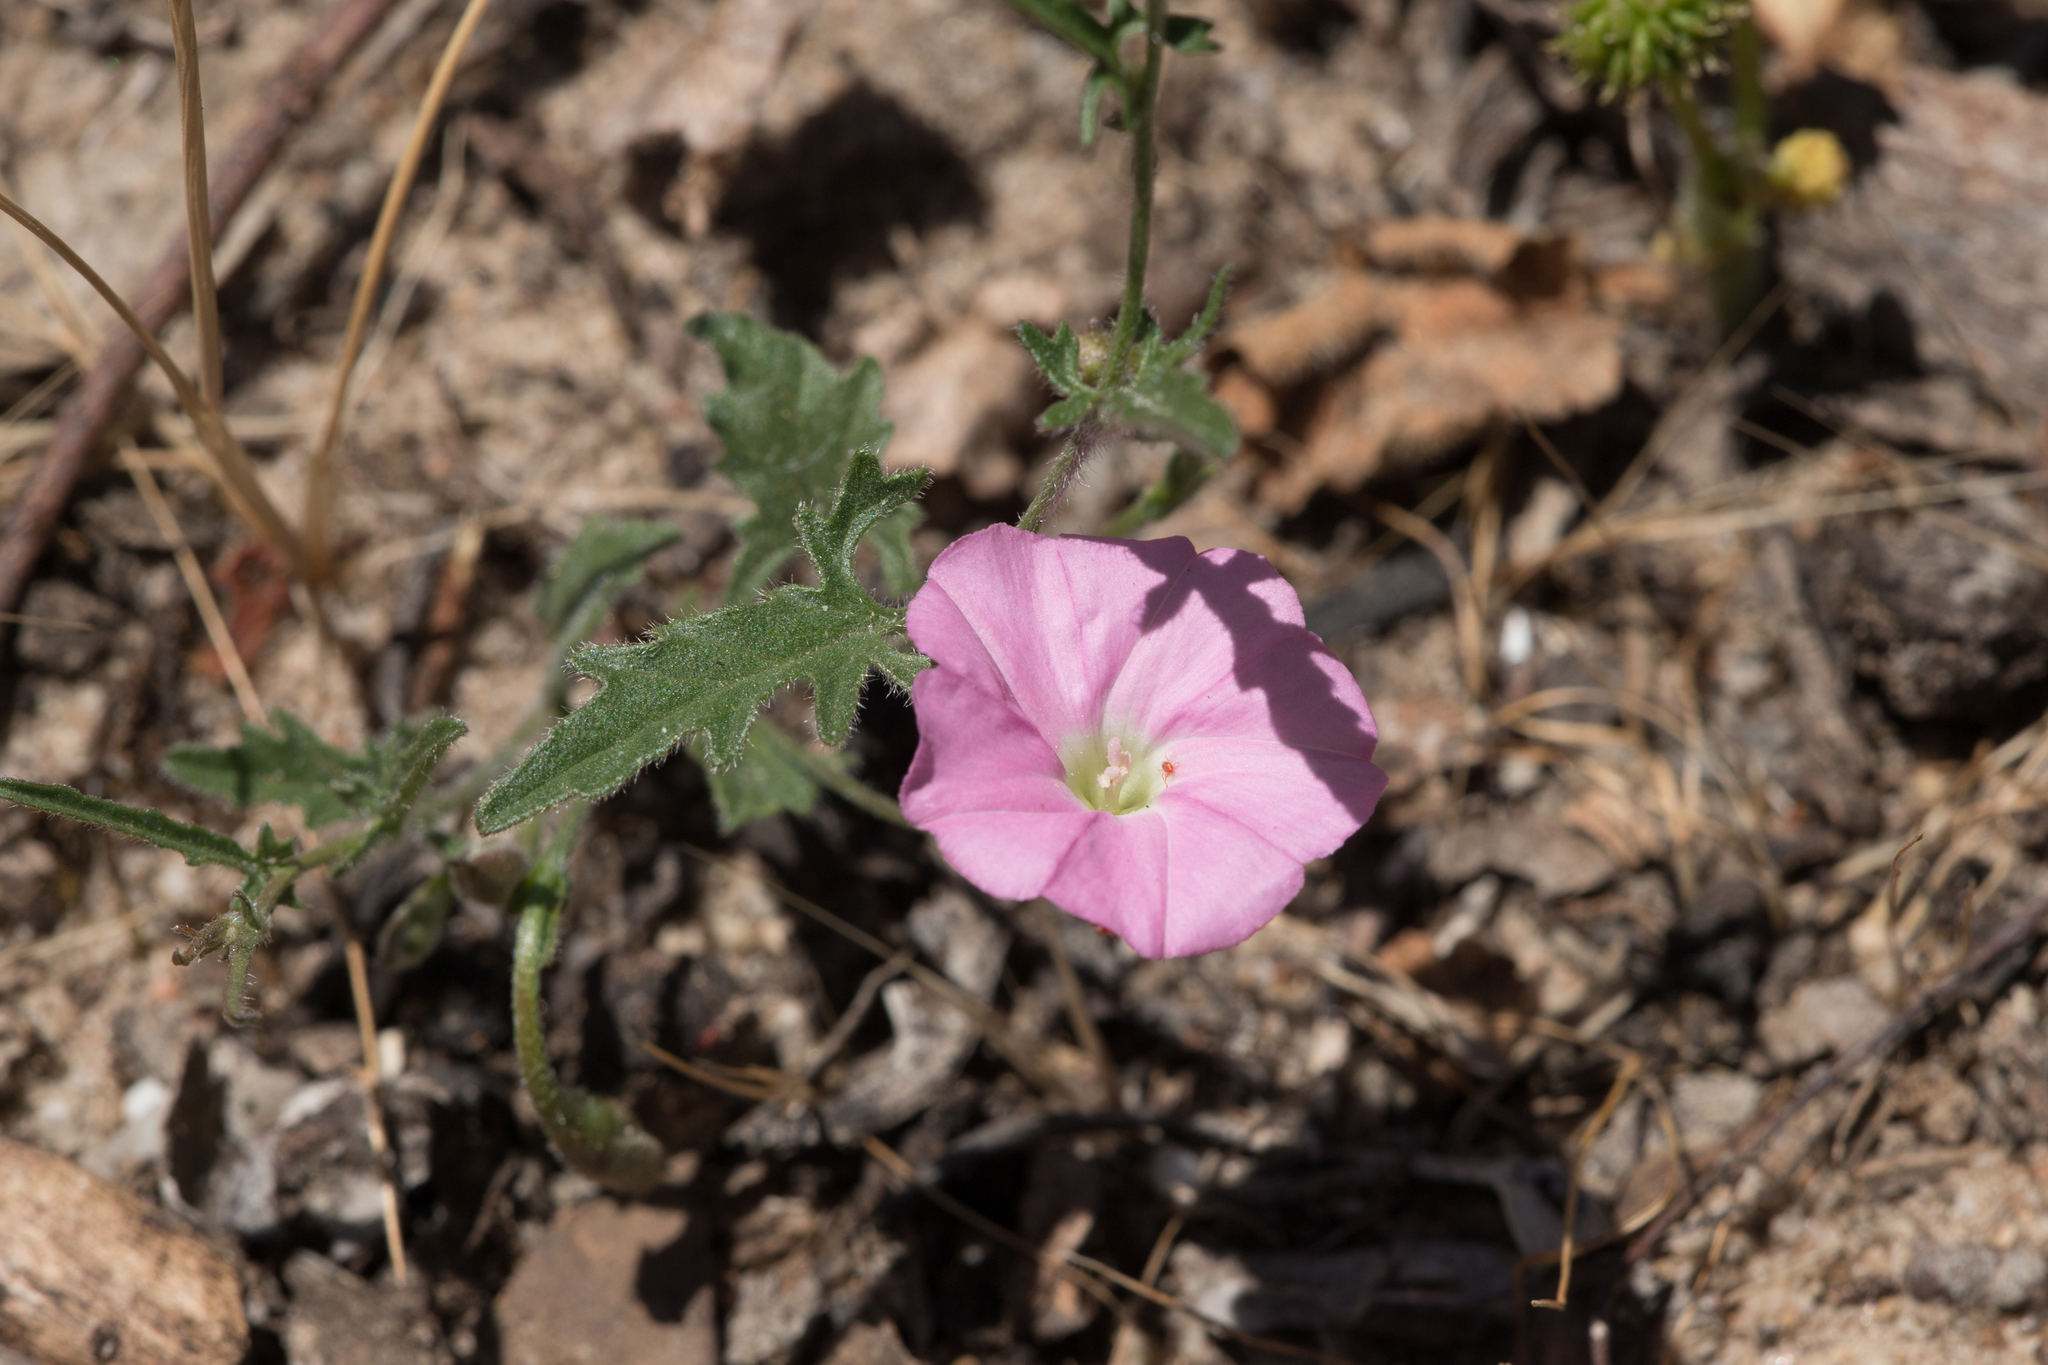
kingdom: Plantae
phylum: Tracheophyta
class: Magnoliopsida
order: Solanales
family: Convolvulaceae
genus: Convolvulus
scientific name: Convolvulus angustissimus
